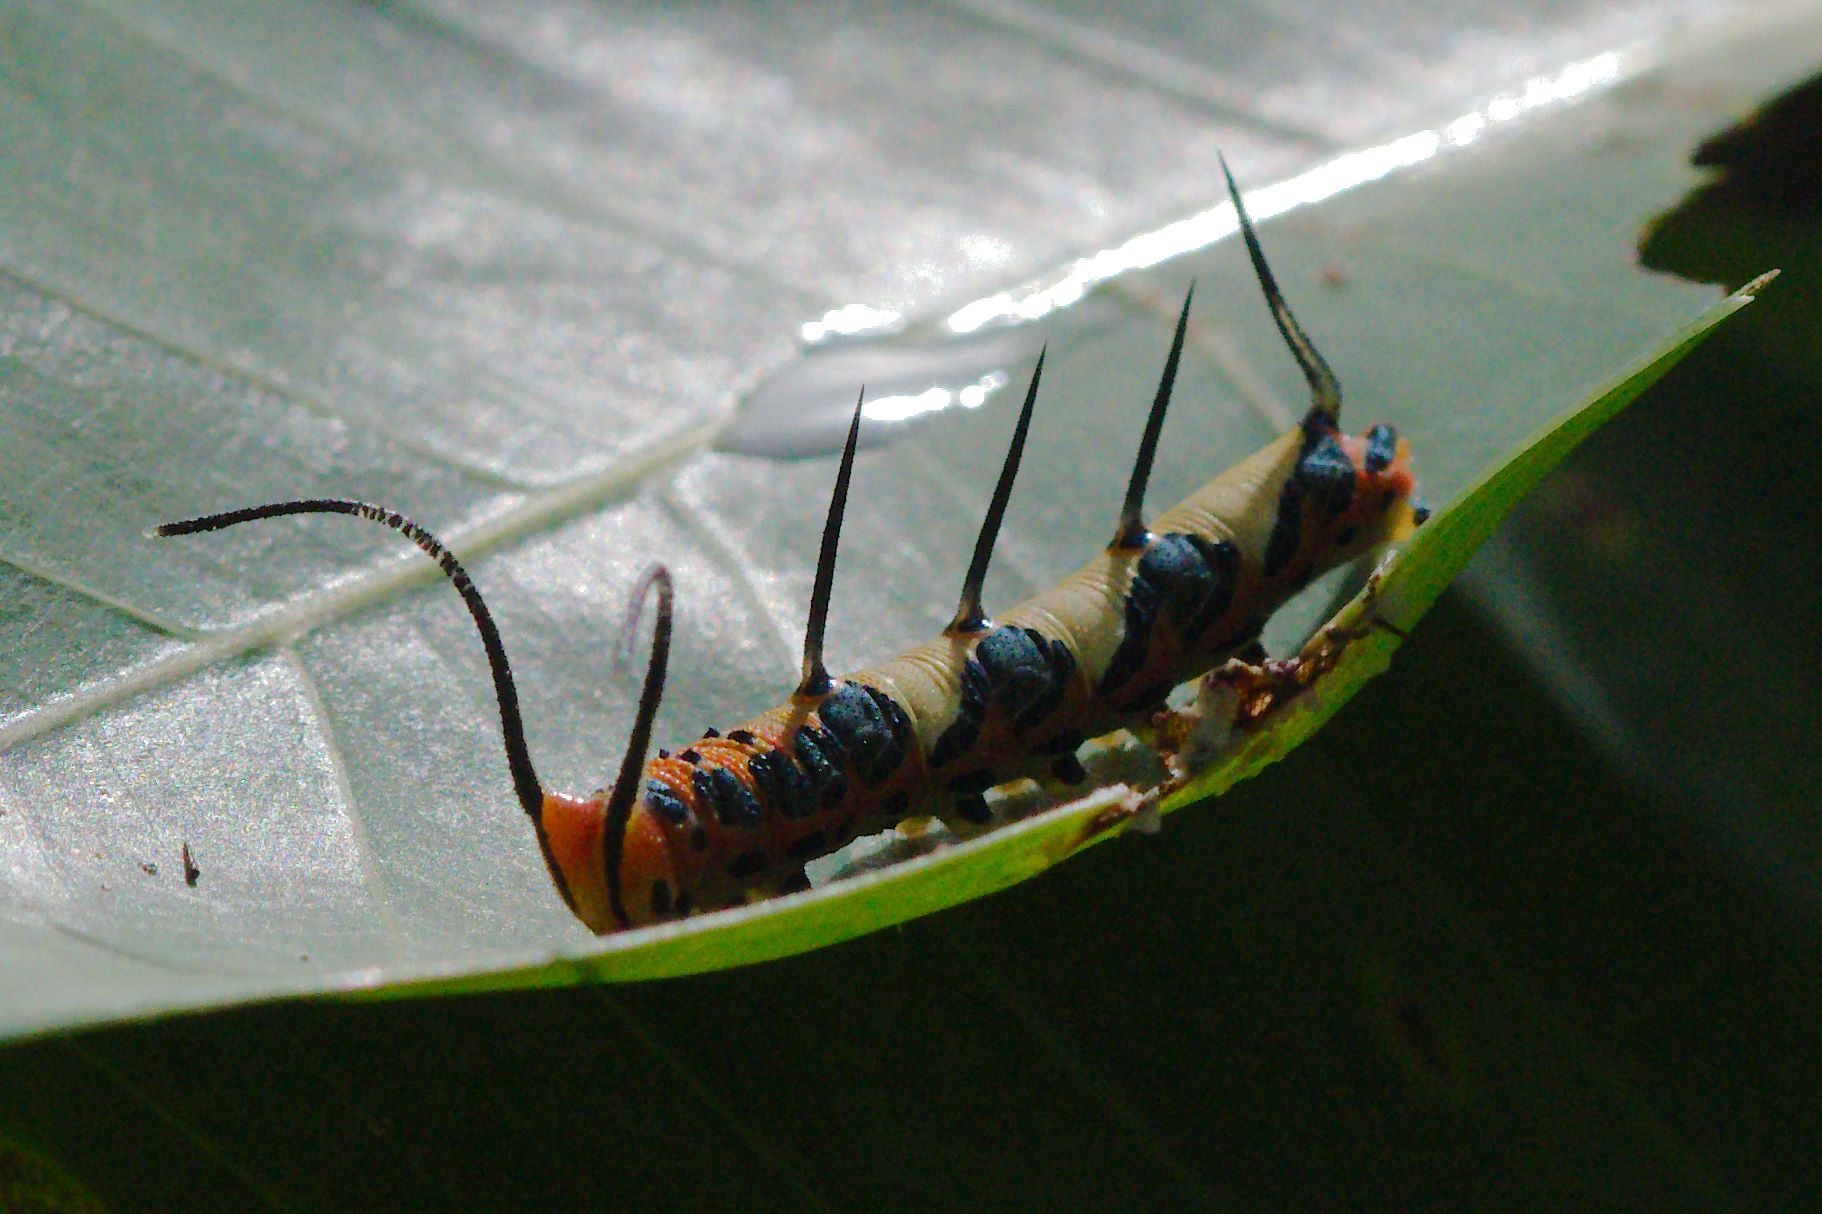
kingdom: Animalia
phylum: Arthropoda
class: Insecta
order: Lepidoptera
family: Nymphalidae
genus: Marpesia
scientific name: Marpesia petreus
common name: Red dagger wing
